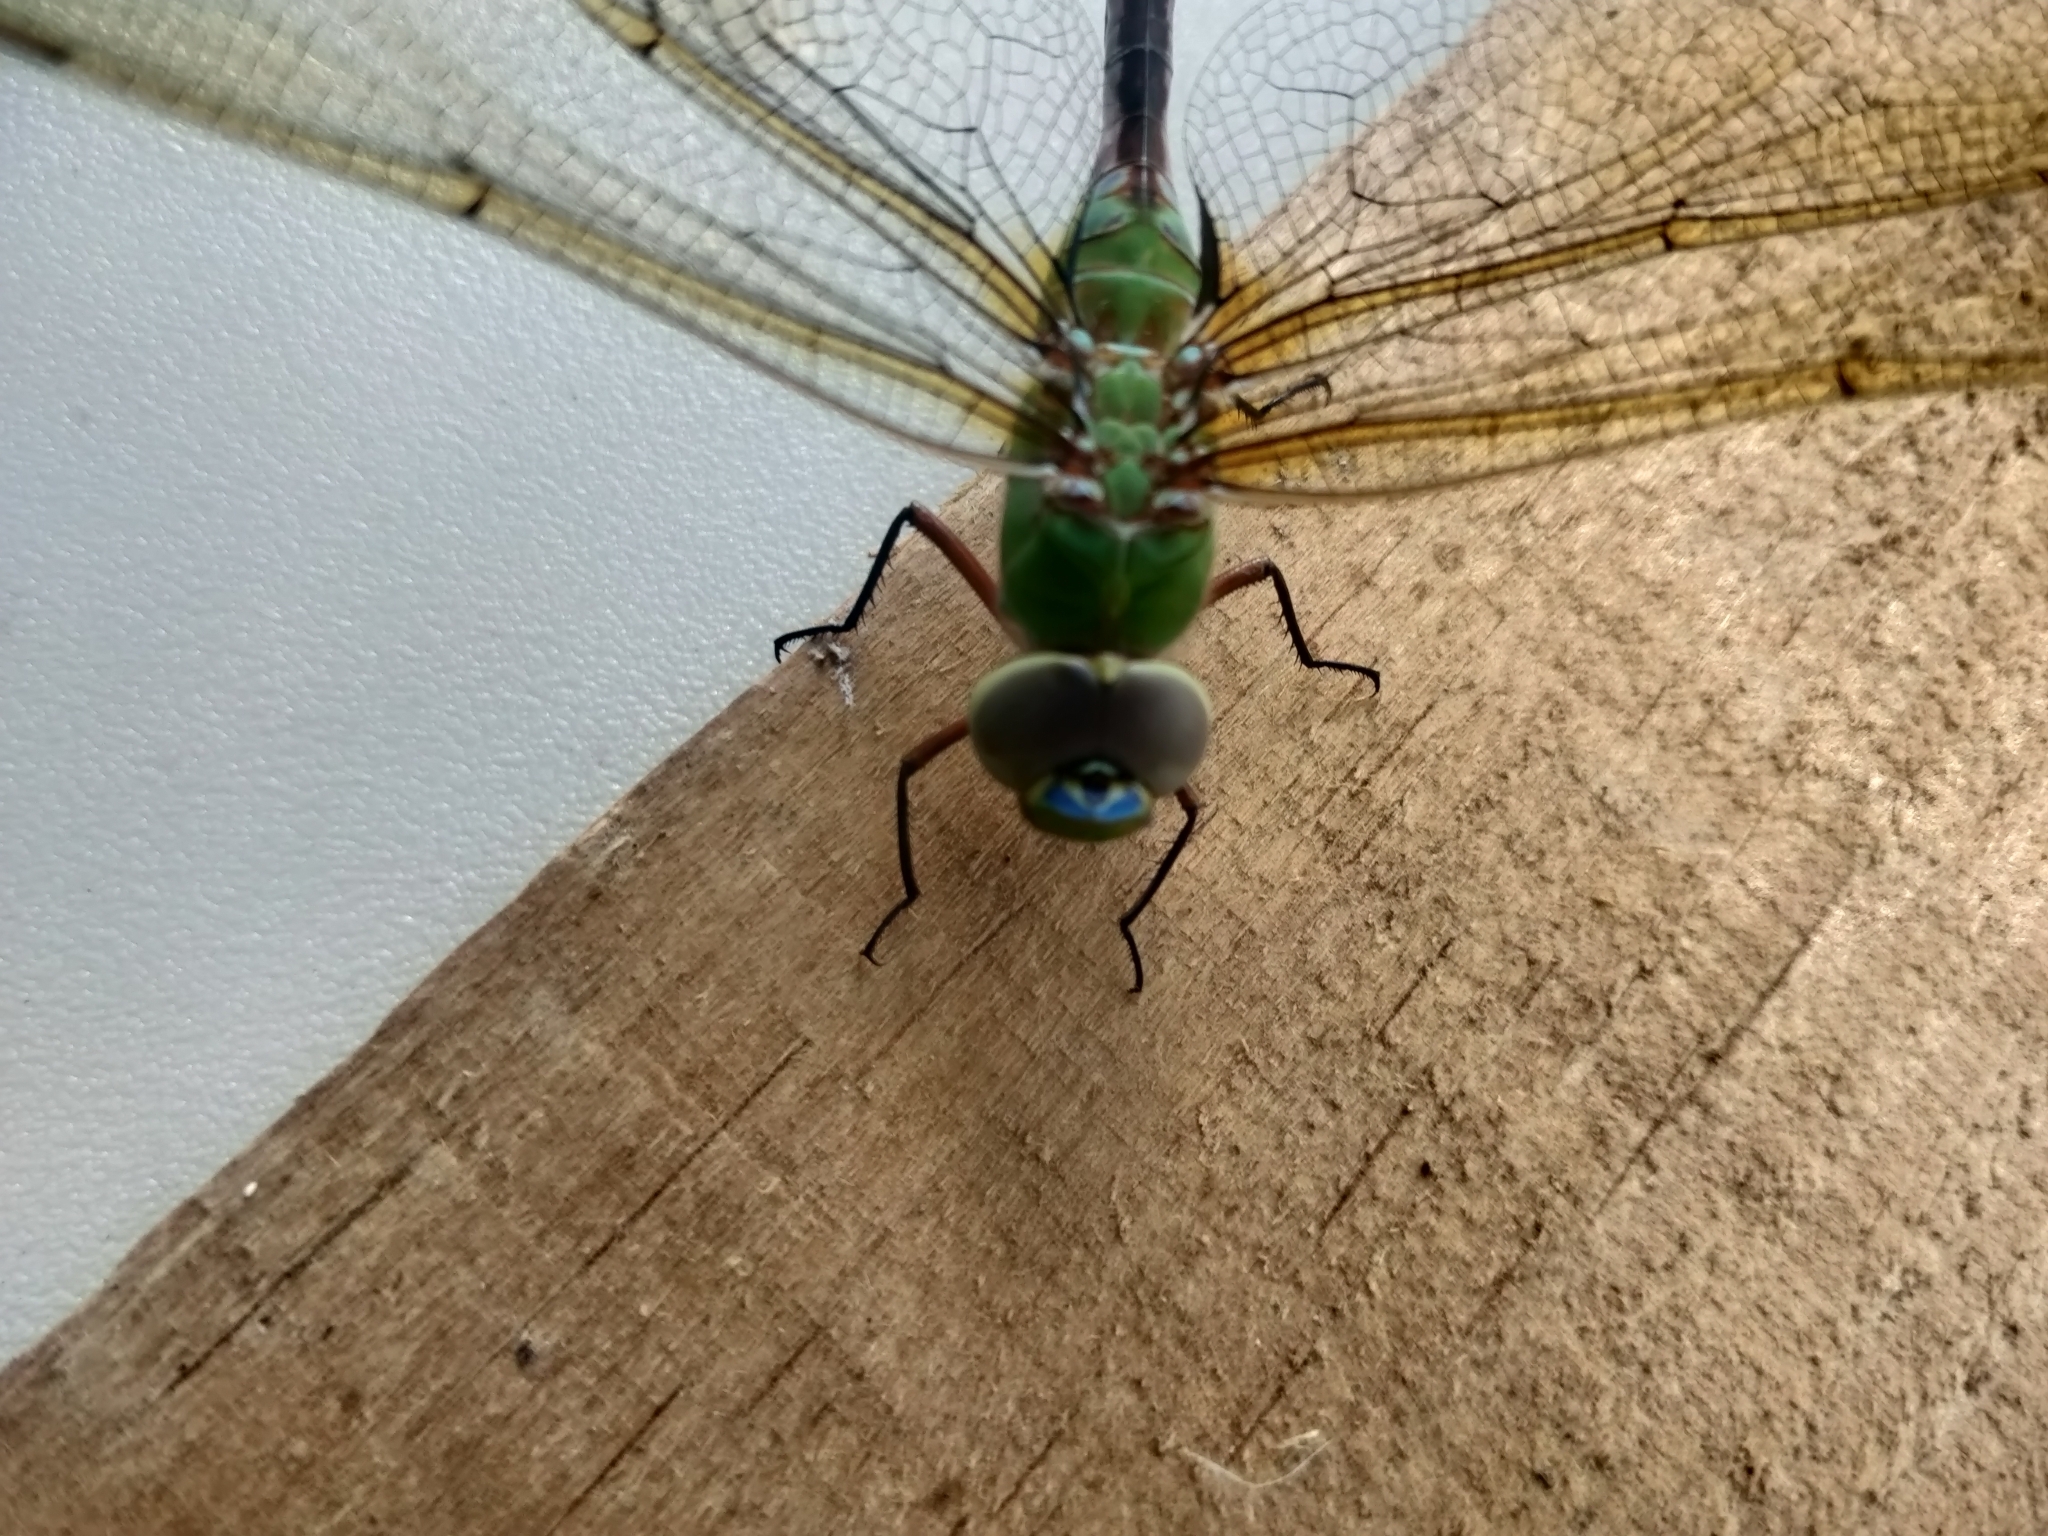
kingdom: Animalia
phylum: Arthropoda
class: Insecta
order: Odonata
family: Aeshnidae
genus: Anax
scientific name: Anax junius
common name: Common green darner
